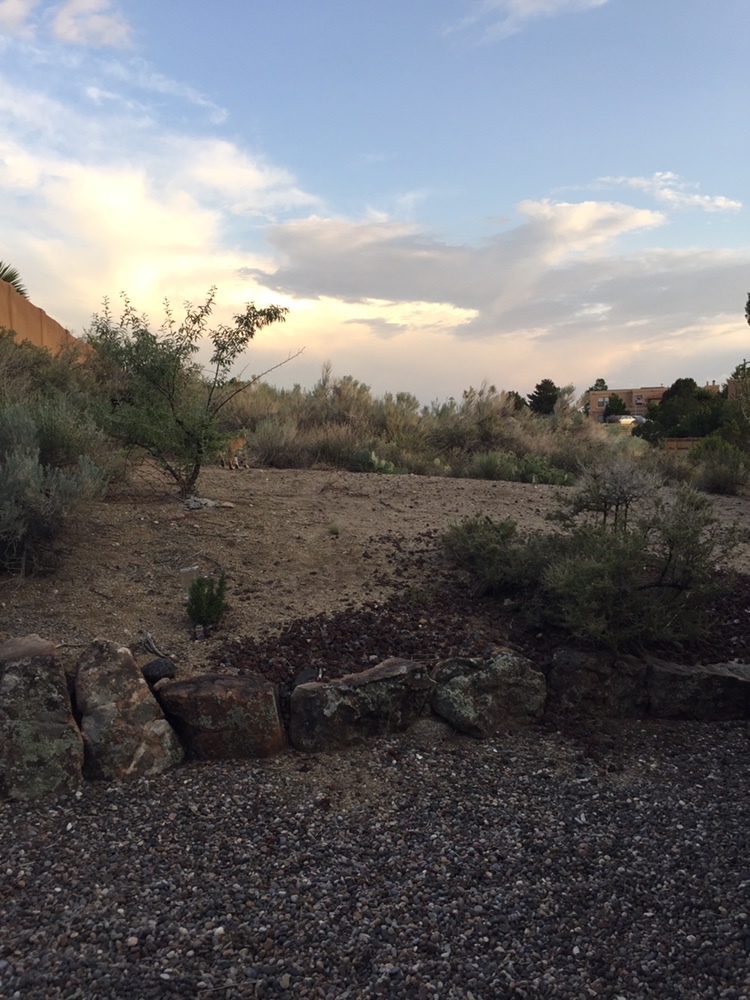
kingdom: Animalia
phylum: Chordata
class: Mammalia
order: Carnivora
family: Felidae
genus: Lynx
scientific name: Lynx rufus
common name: Bobcat
